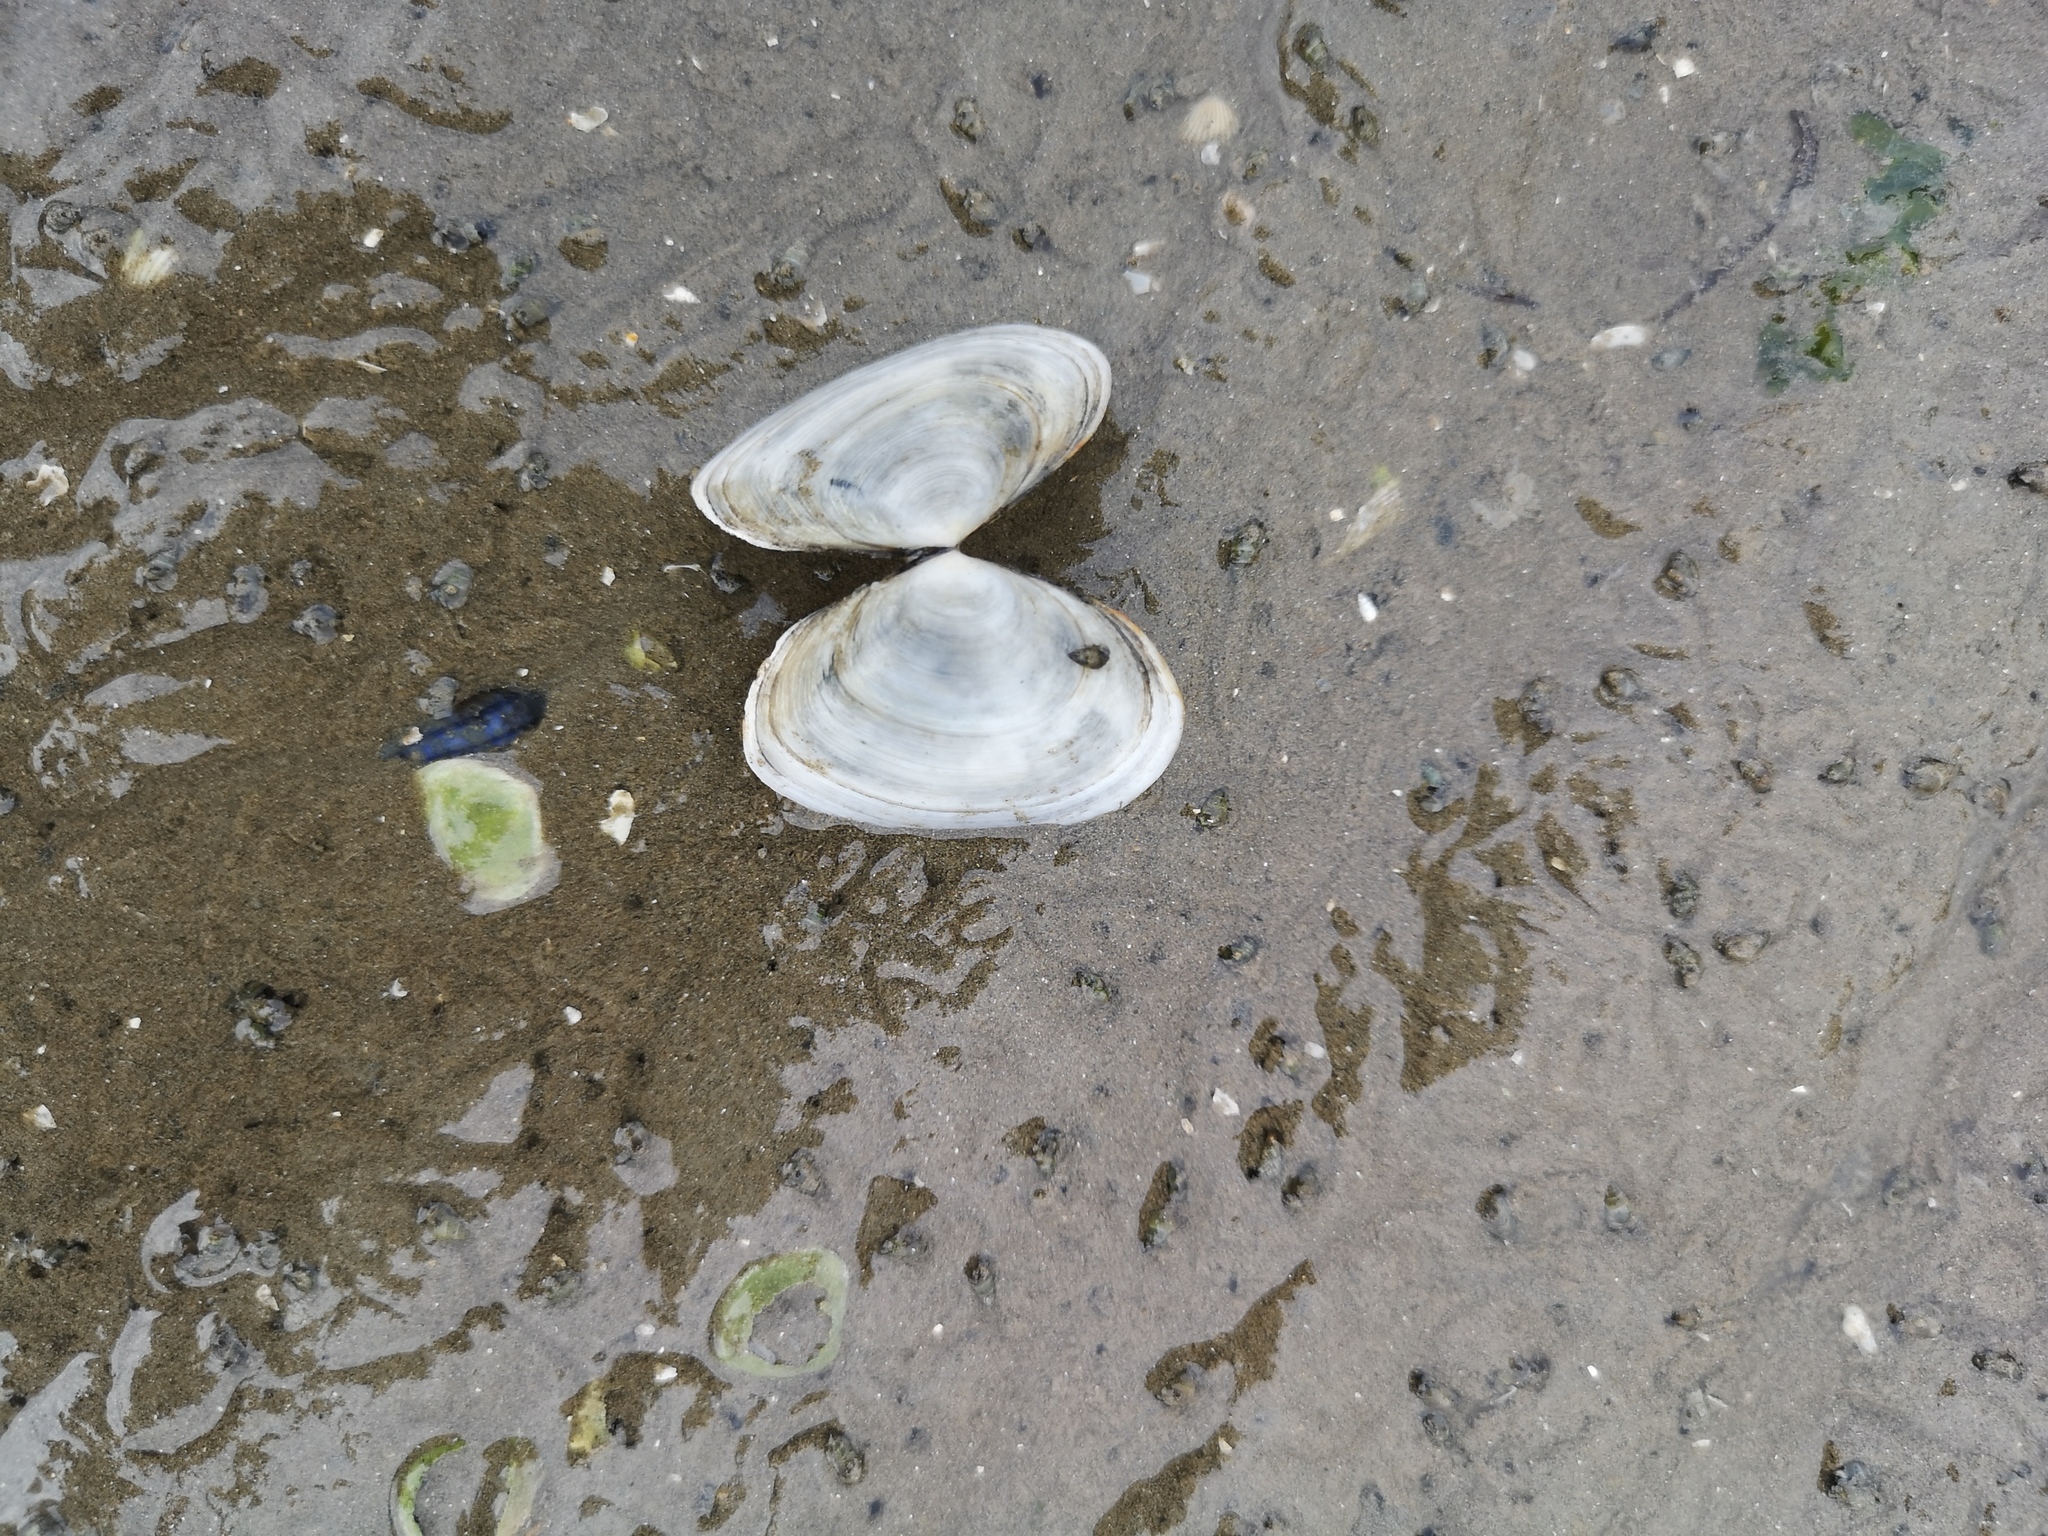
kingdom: Animalia
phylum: Mollusca
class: Bivalvia
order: Cardiida
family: Semelidae
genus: Scrobicularia
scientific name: Scrobicularia plana
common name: Peppery furrow shell
